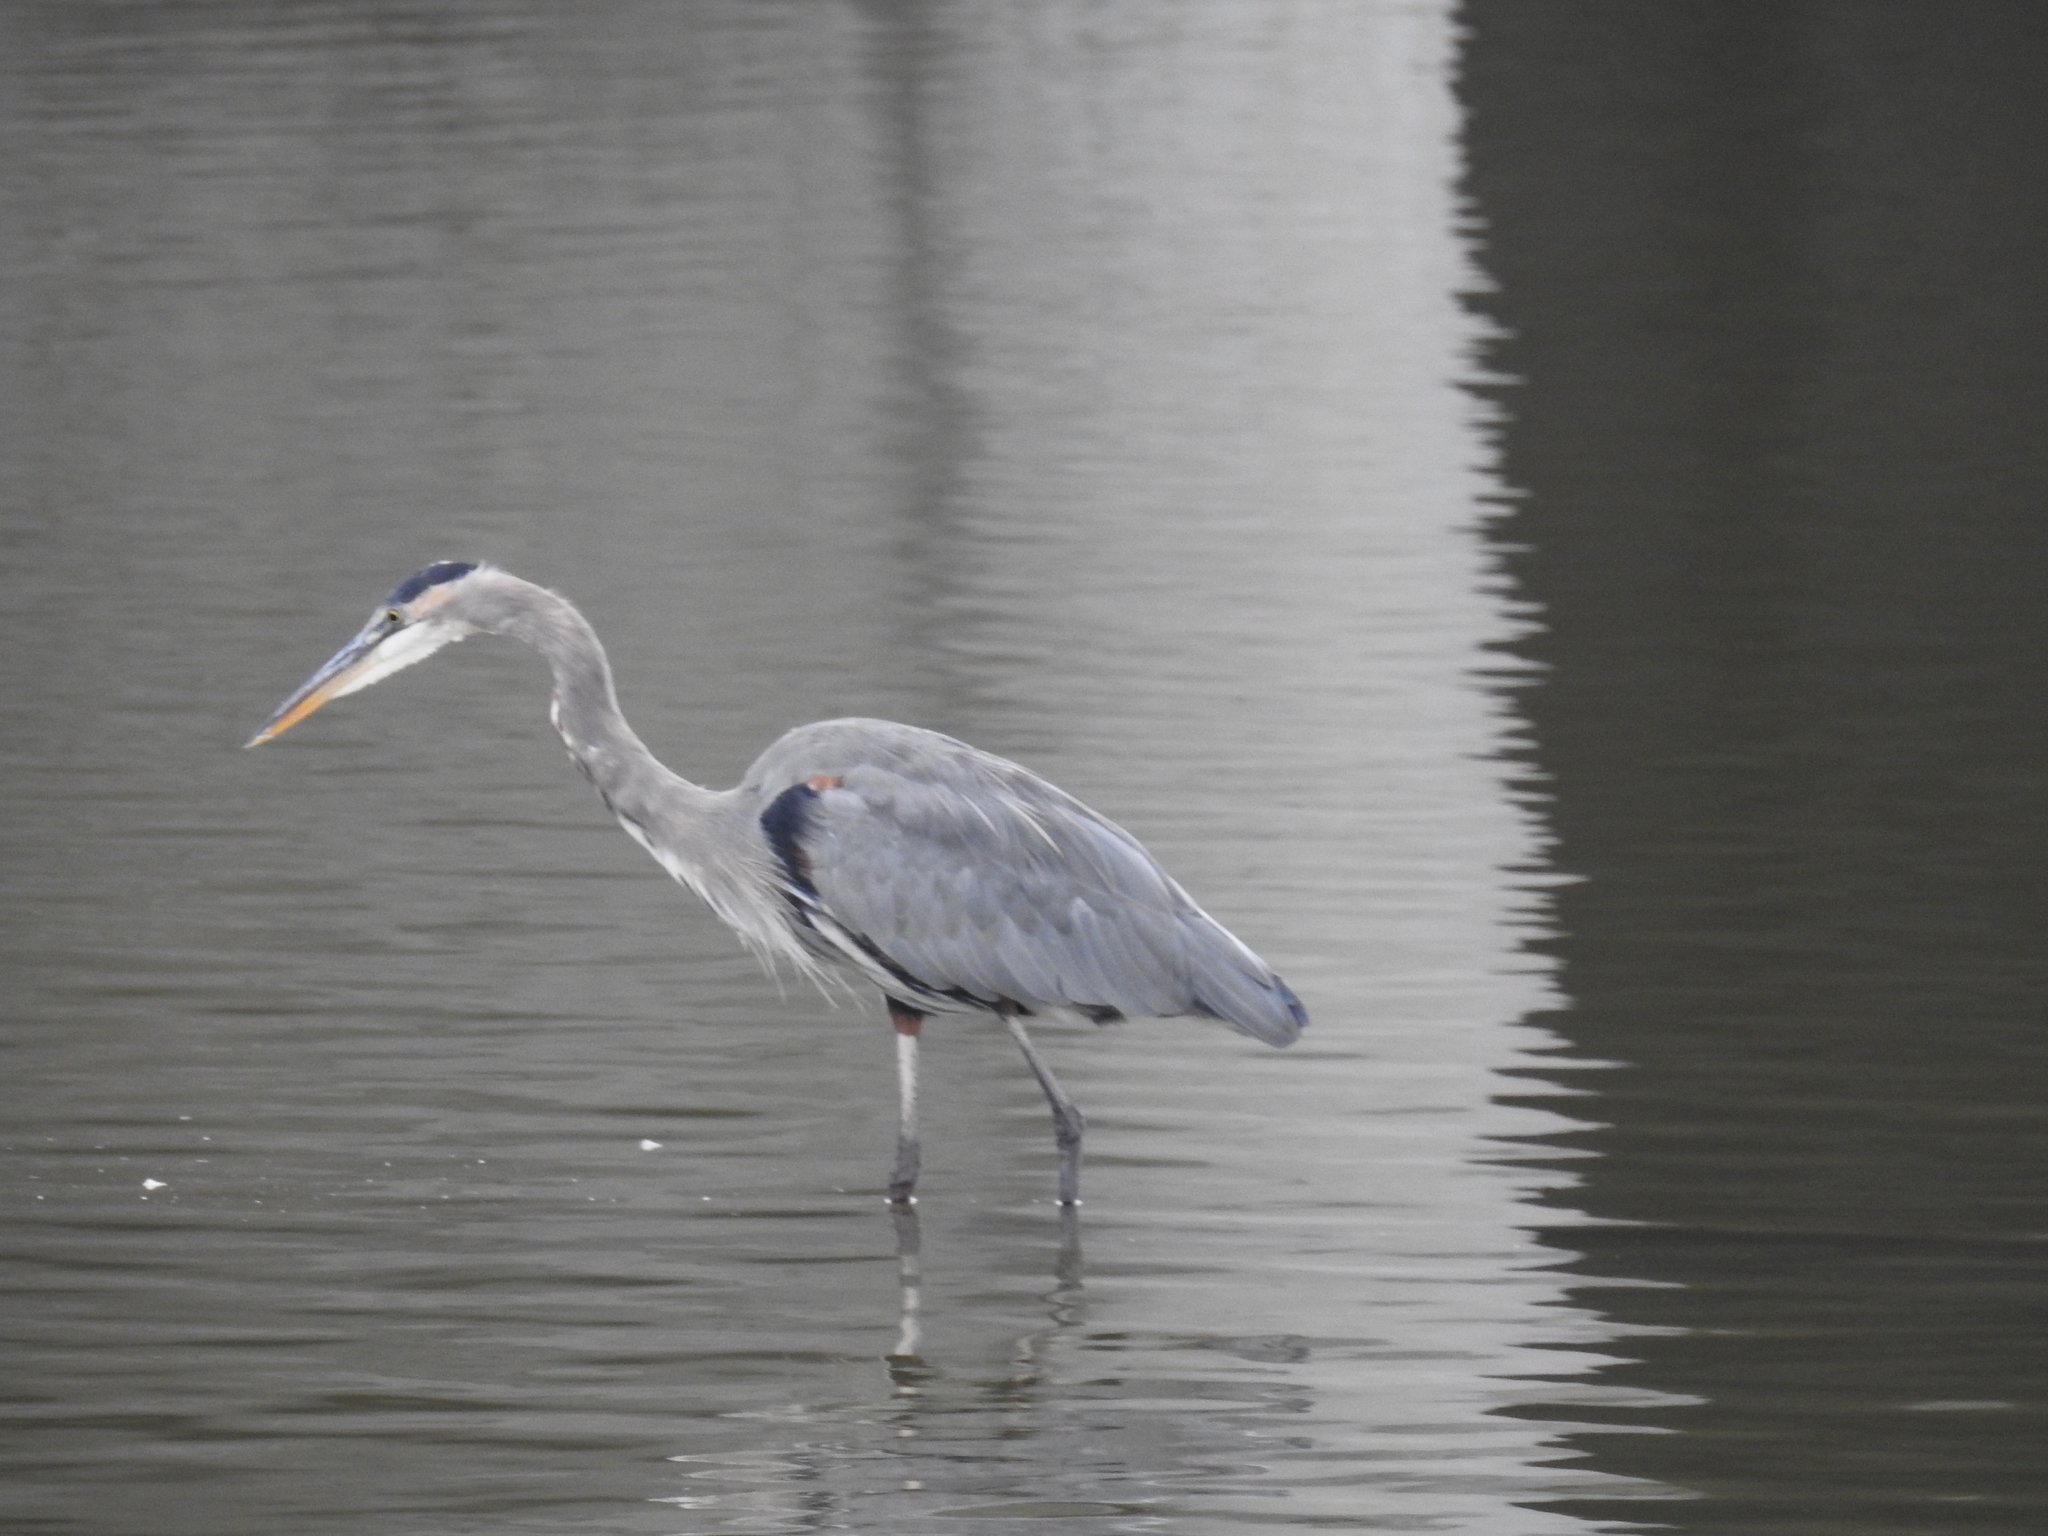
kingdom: Animalia
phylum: Chordata
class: Aves
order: Pelecaniformes
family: Ardeidae
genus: Ardea
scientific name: Ardea herodias
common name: Great blue heron
